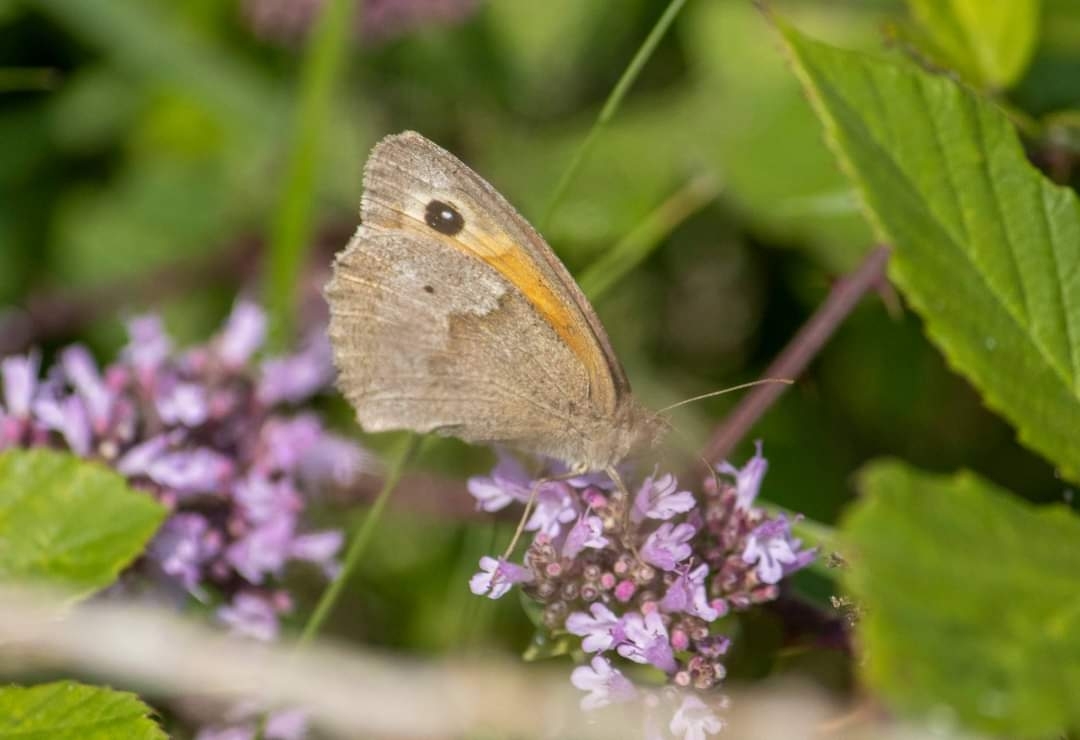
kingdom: Animalia
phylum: Arthropoda
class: Insecta
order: Lepidoptera
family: Nymphalidae
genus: Maniola
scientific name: Maniola jurtina
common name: Meadow brown
